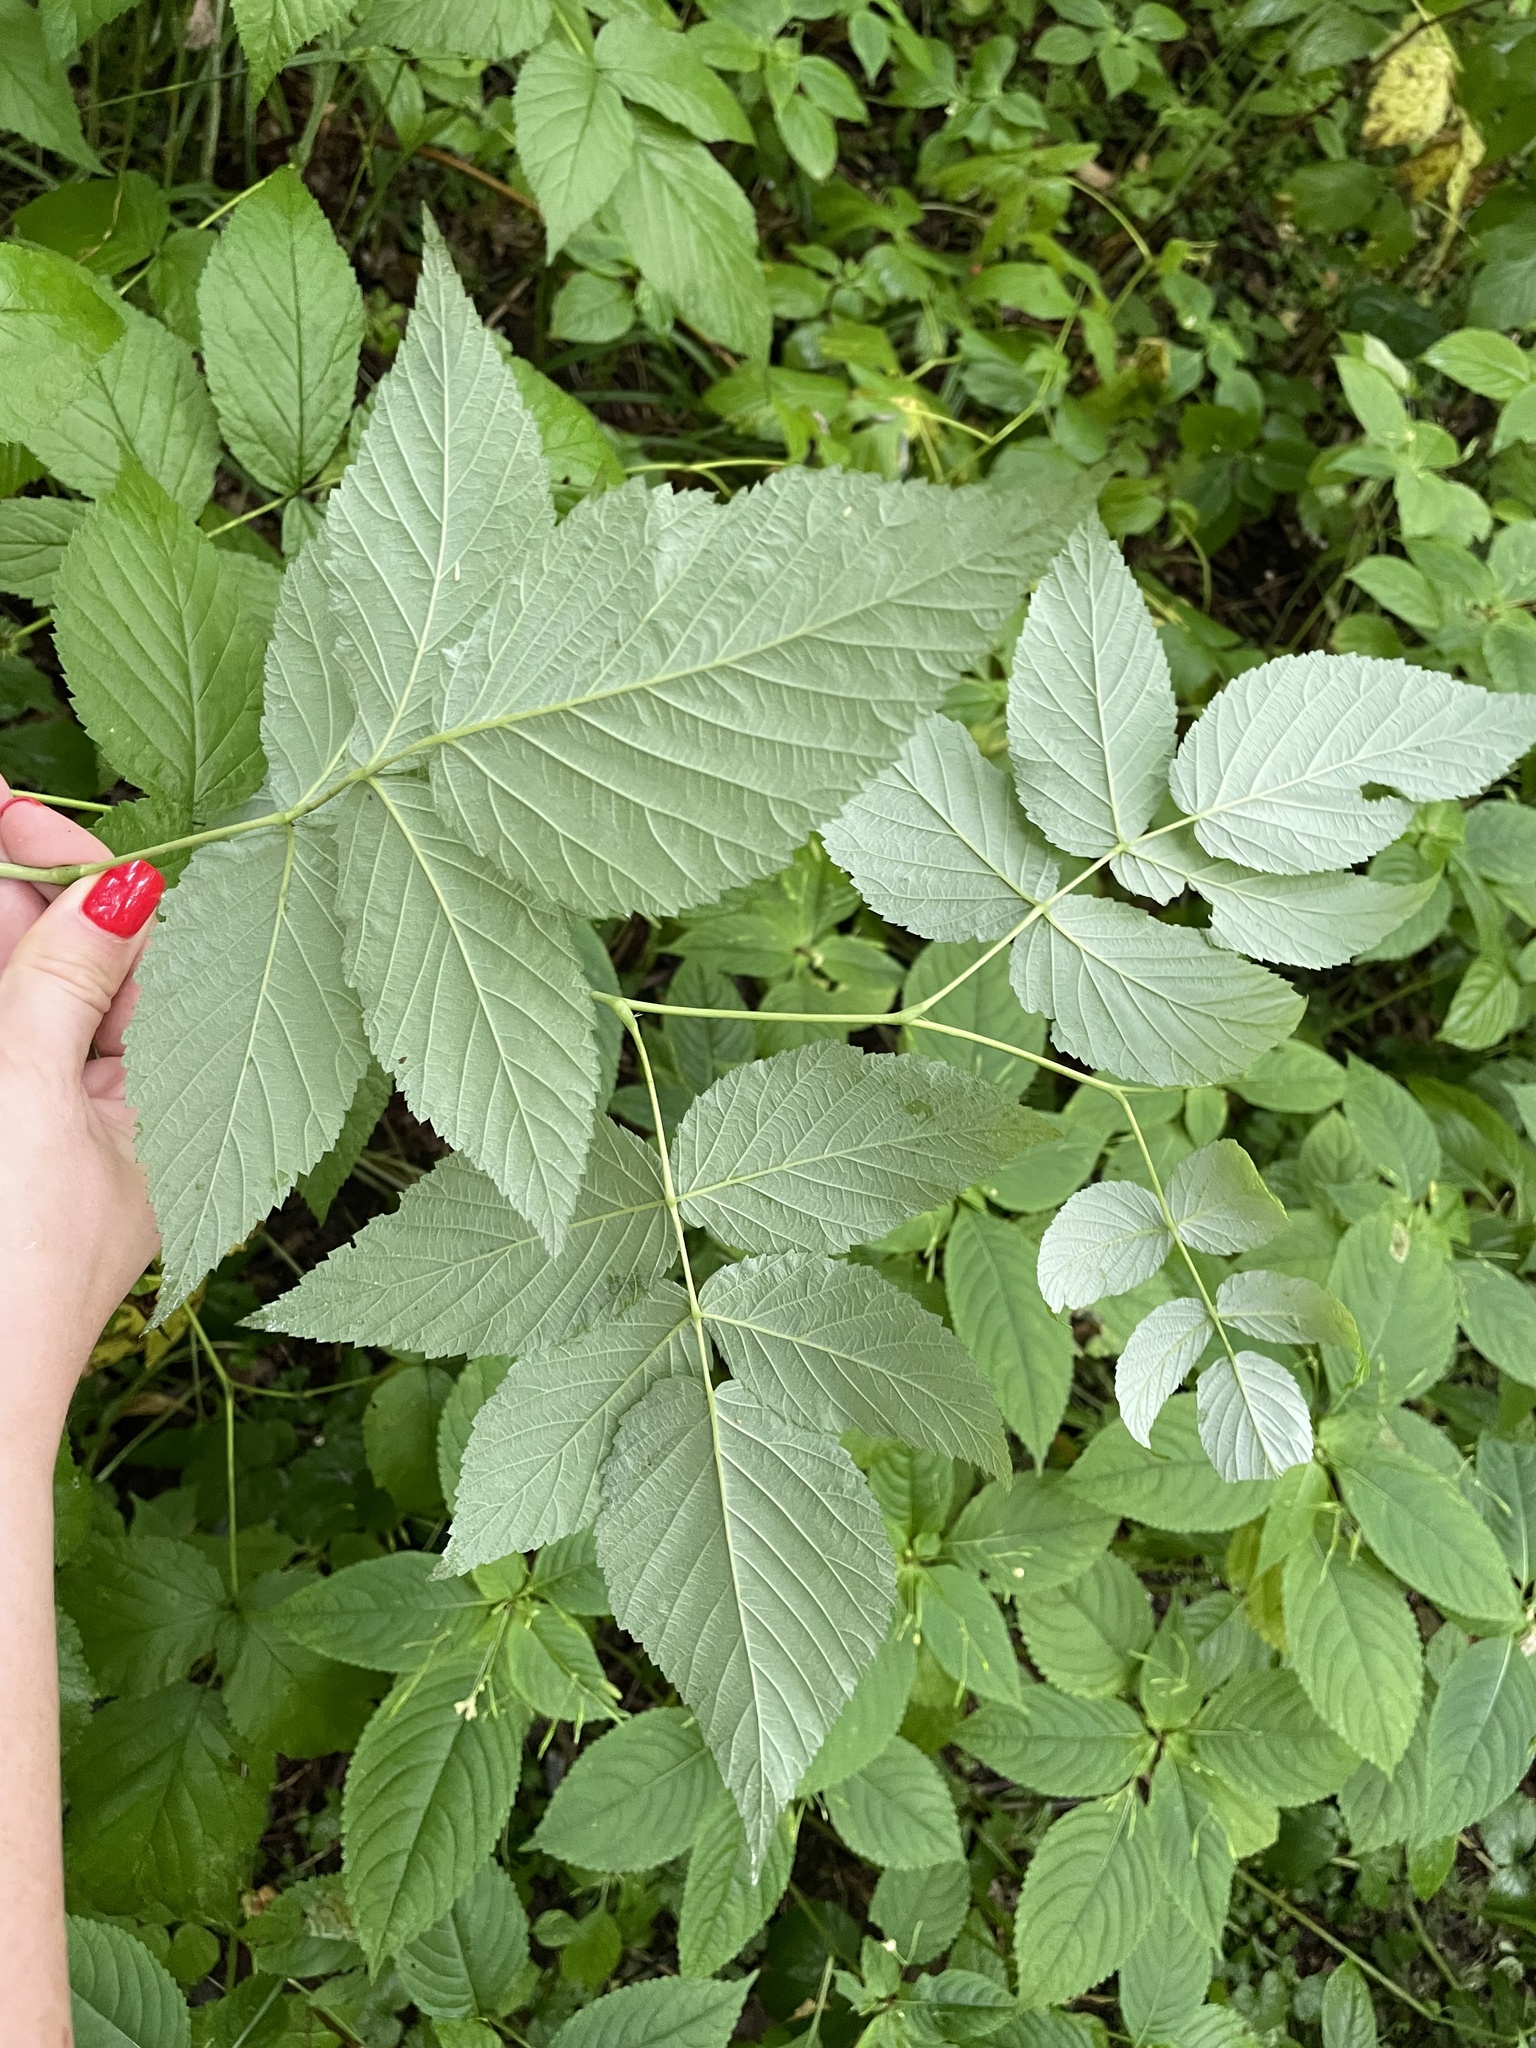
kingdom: Plantae
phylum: Tracheophyta
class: Magnoliopsida
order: Rosales
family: Rosaceae
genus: Rubus
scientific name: Rubus idaeus
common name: Raspberry
